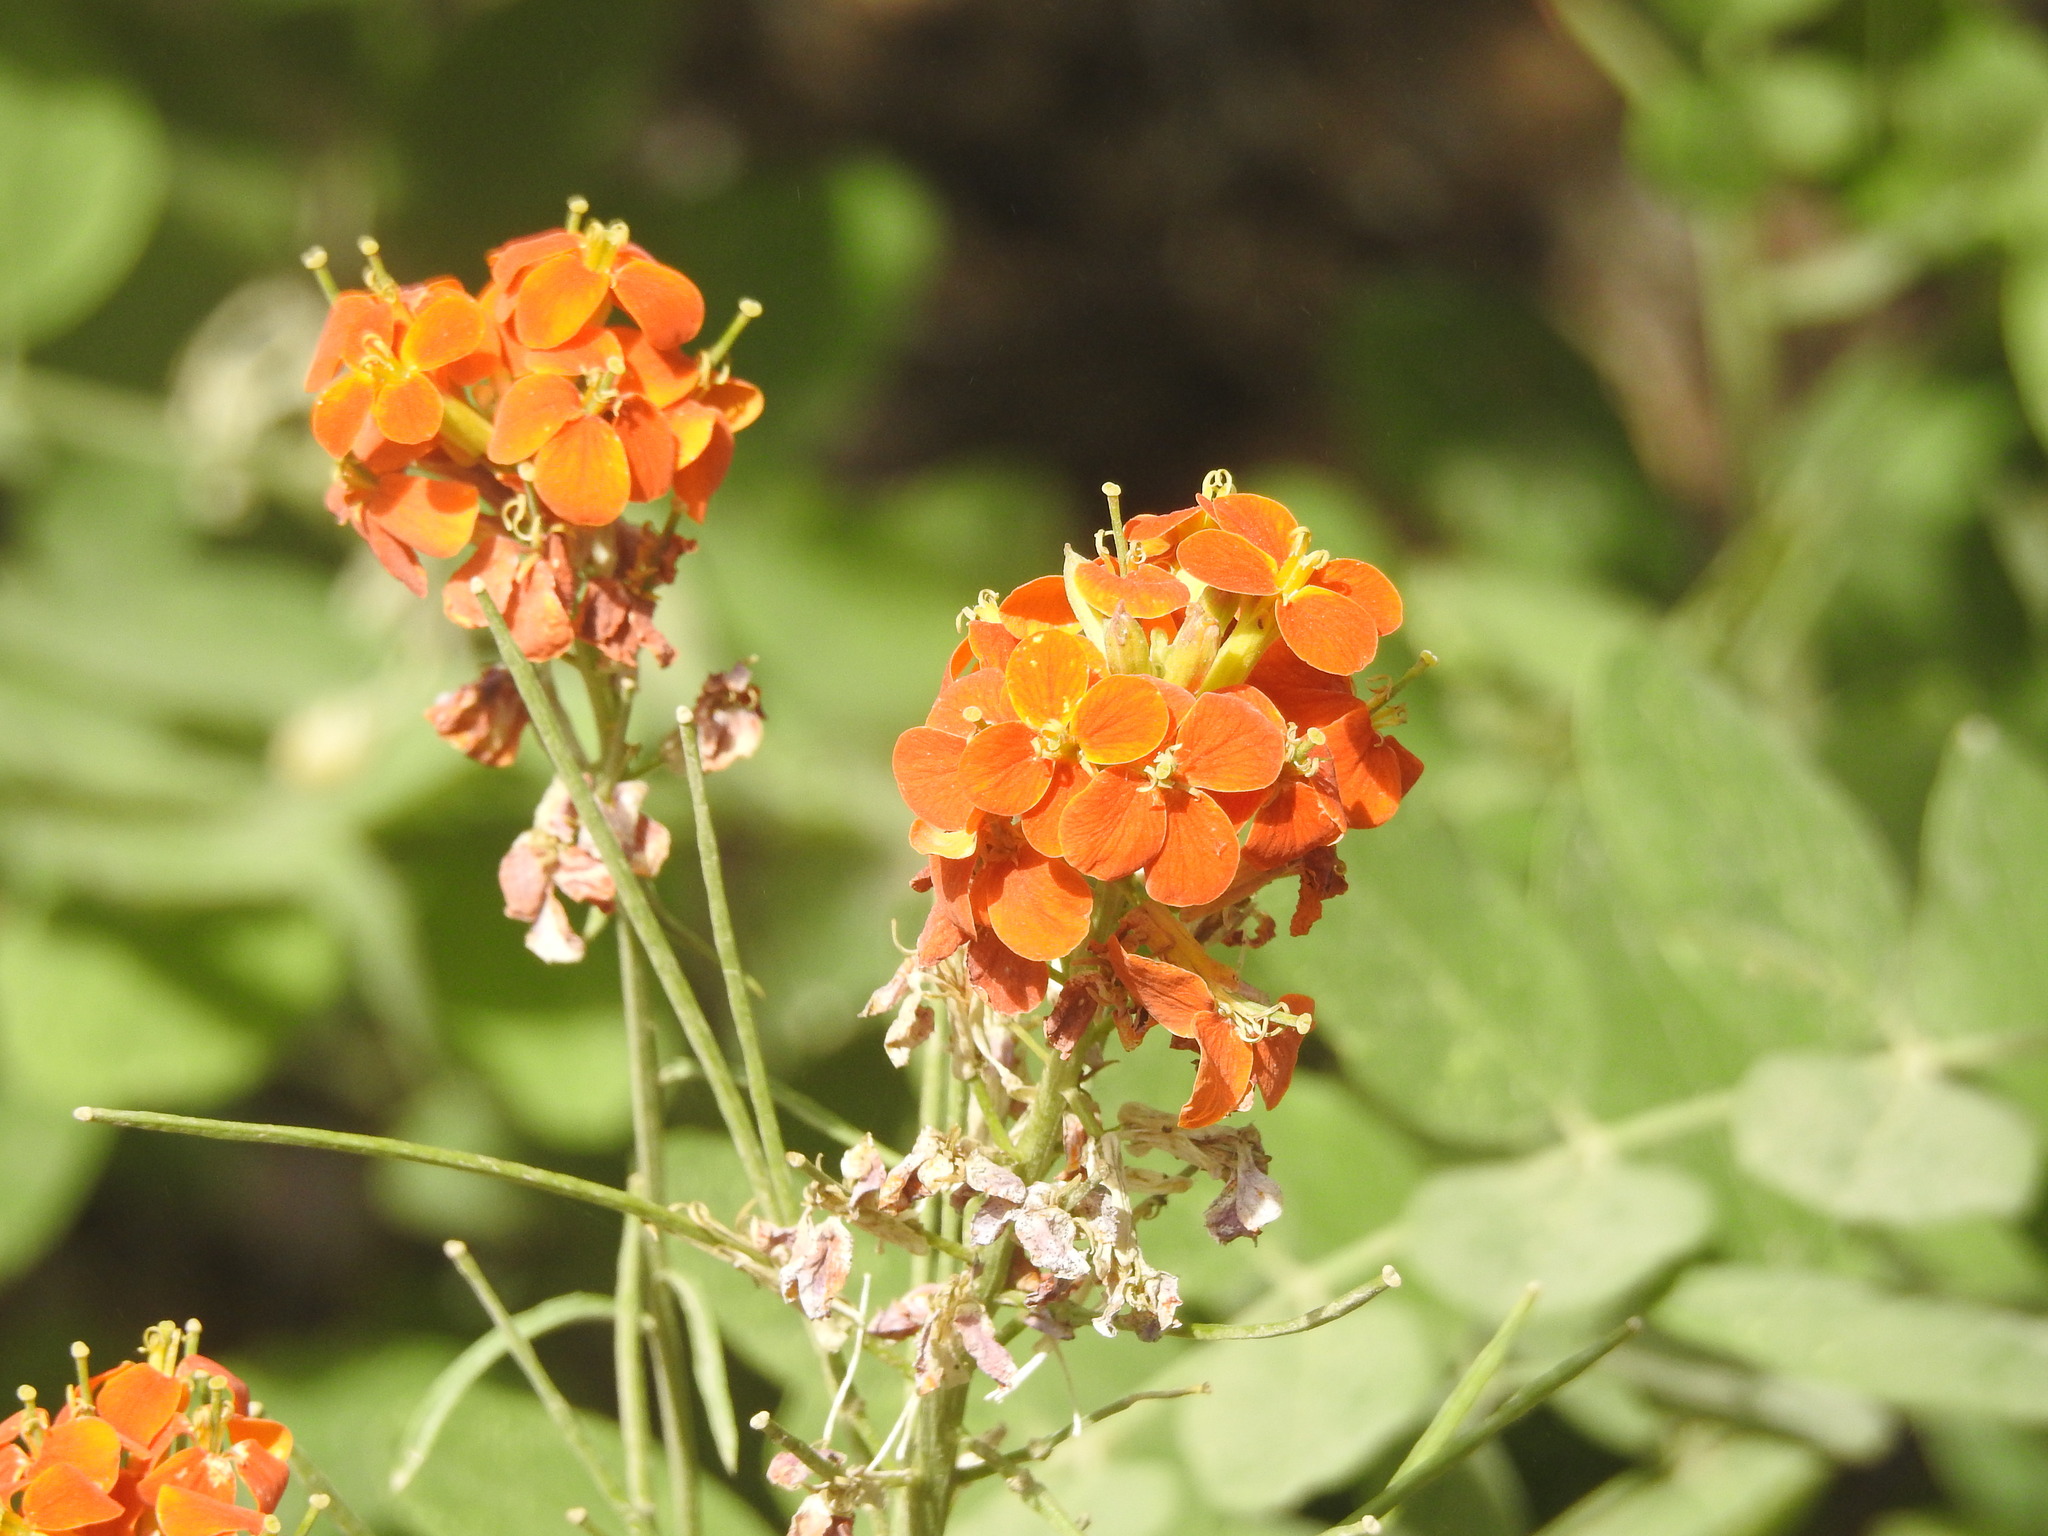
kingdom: Plantae
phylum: Tracheophyta
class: Magnoliopsida
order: Brassicales
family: Brassicaceae
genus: Erysimum
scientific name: Erysimum capitatum
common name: Western wallflower
